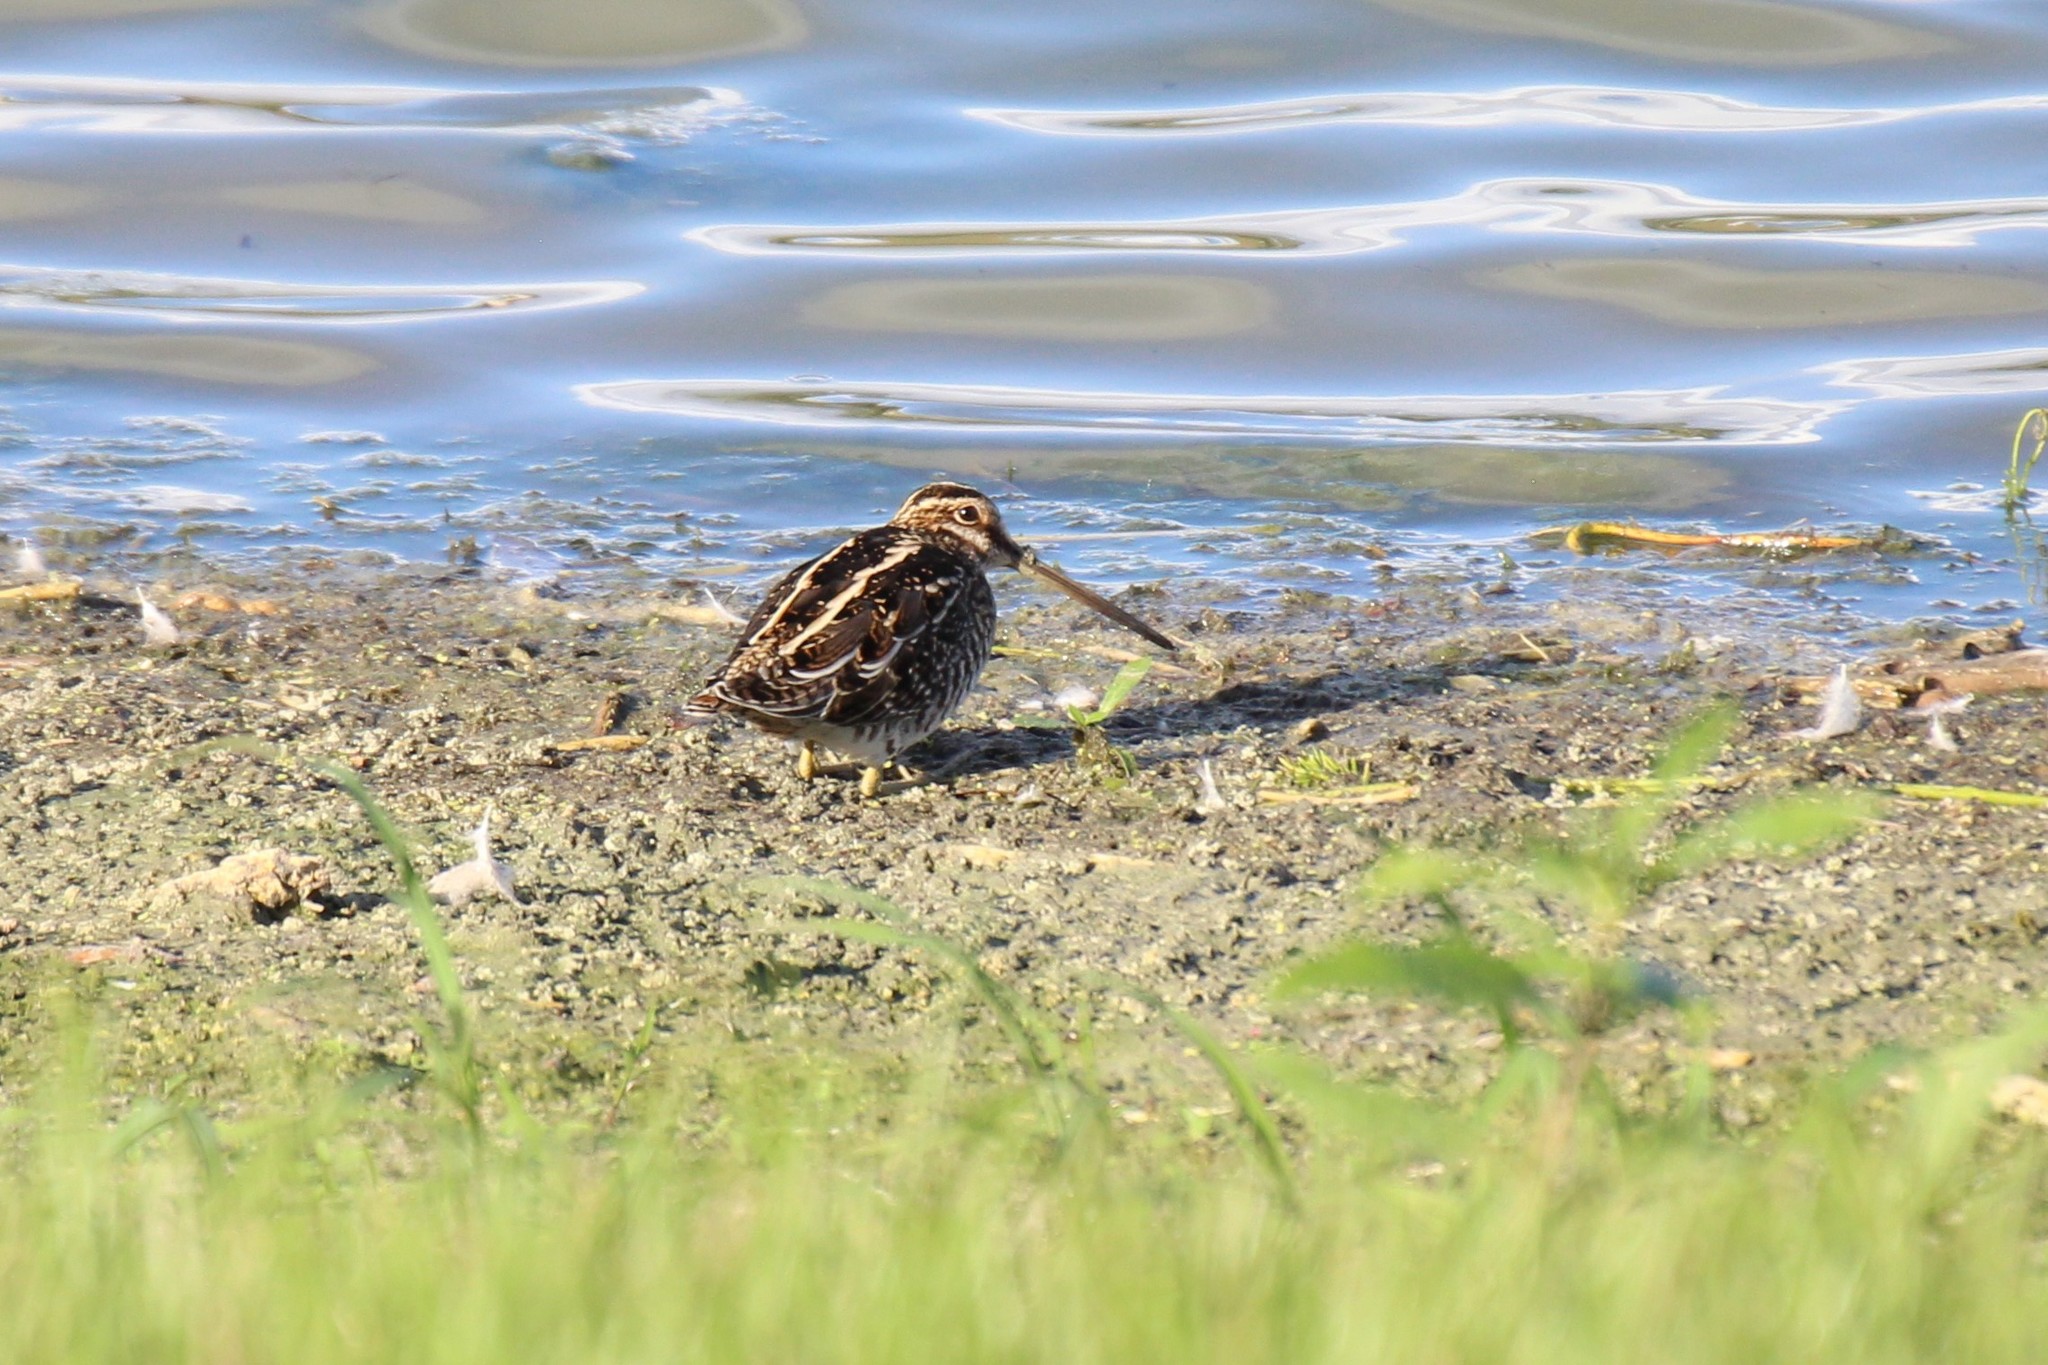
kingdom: Animalia
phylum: Chordata
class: Aves
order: Charadriiformes
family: Scolopacidae
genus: Gallinago
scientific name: Gallinago delicata
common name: Wilson's snipe
